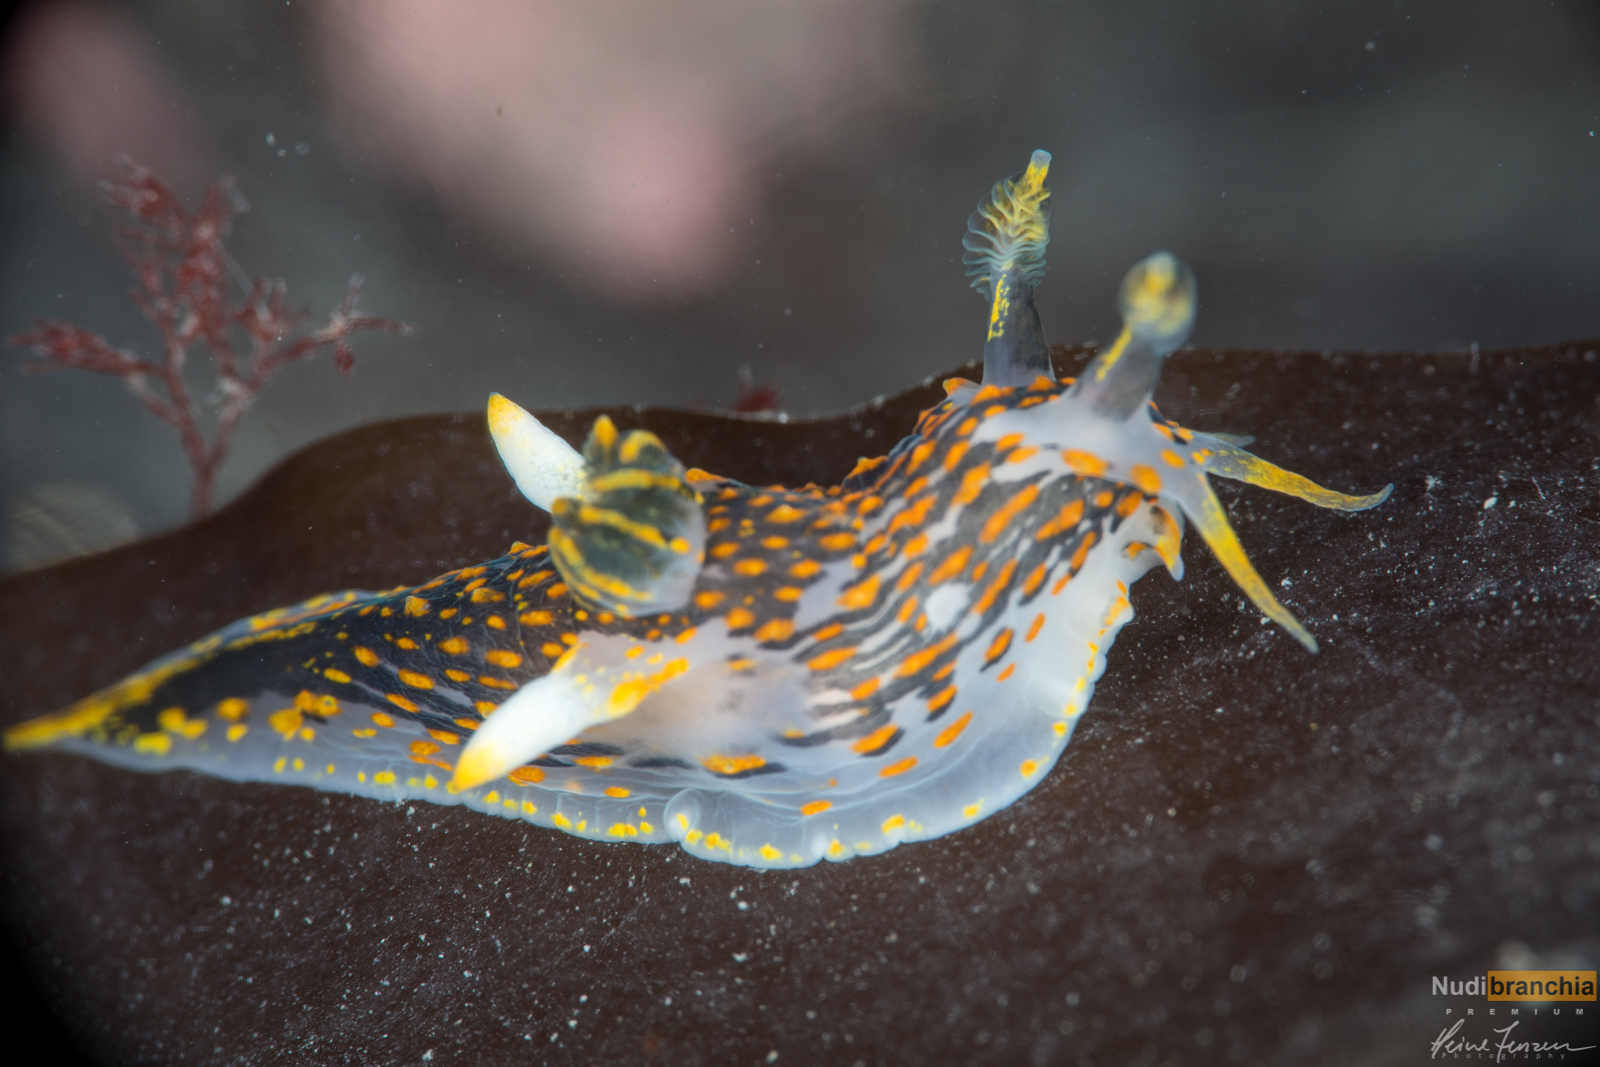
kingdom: Animalia
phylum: Mollusca
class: Gastropoda
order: Nudibranchia
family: Polyceridae
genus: Polycera
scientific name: Polycera quadrilineata
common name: Four-striped polycera
